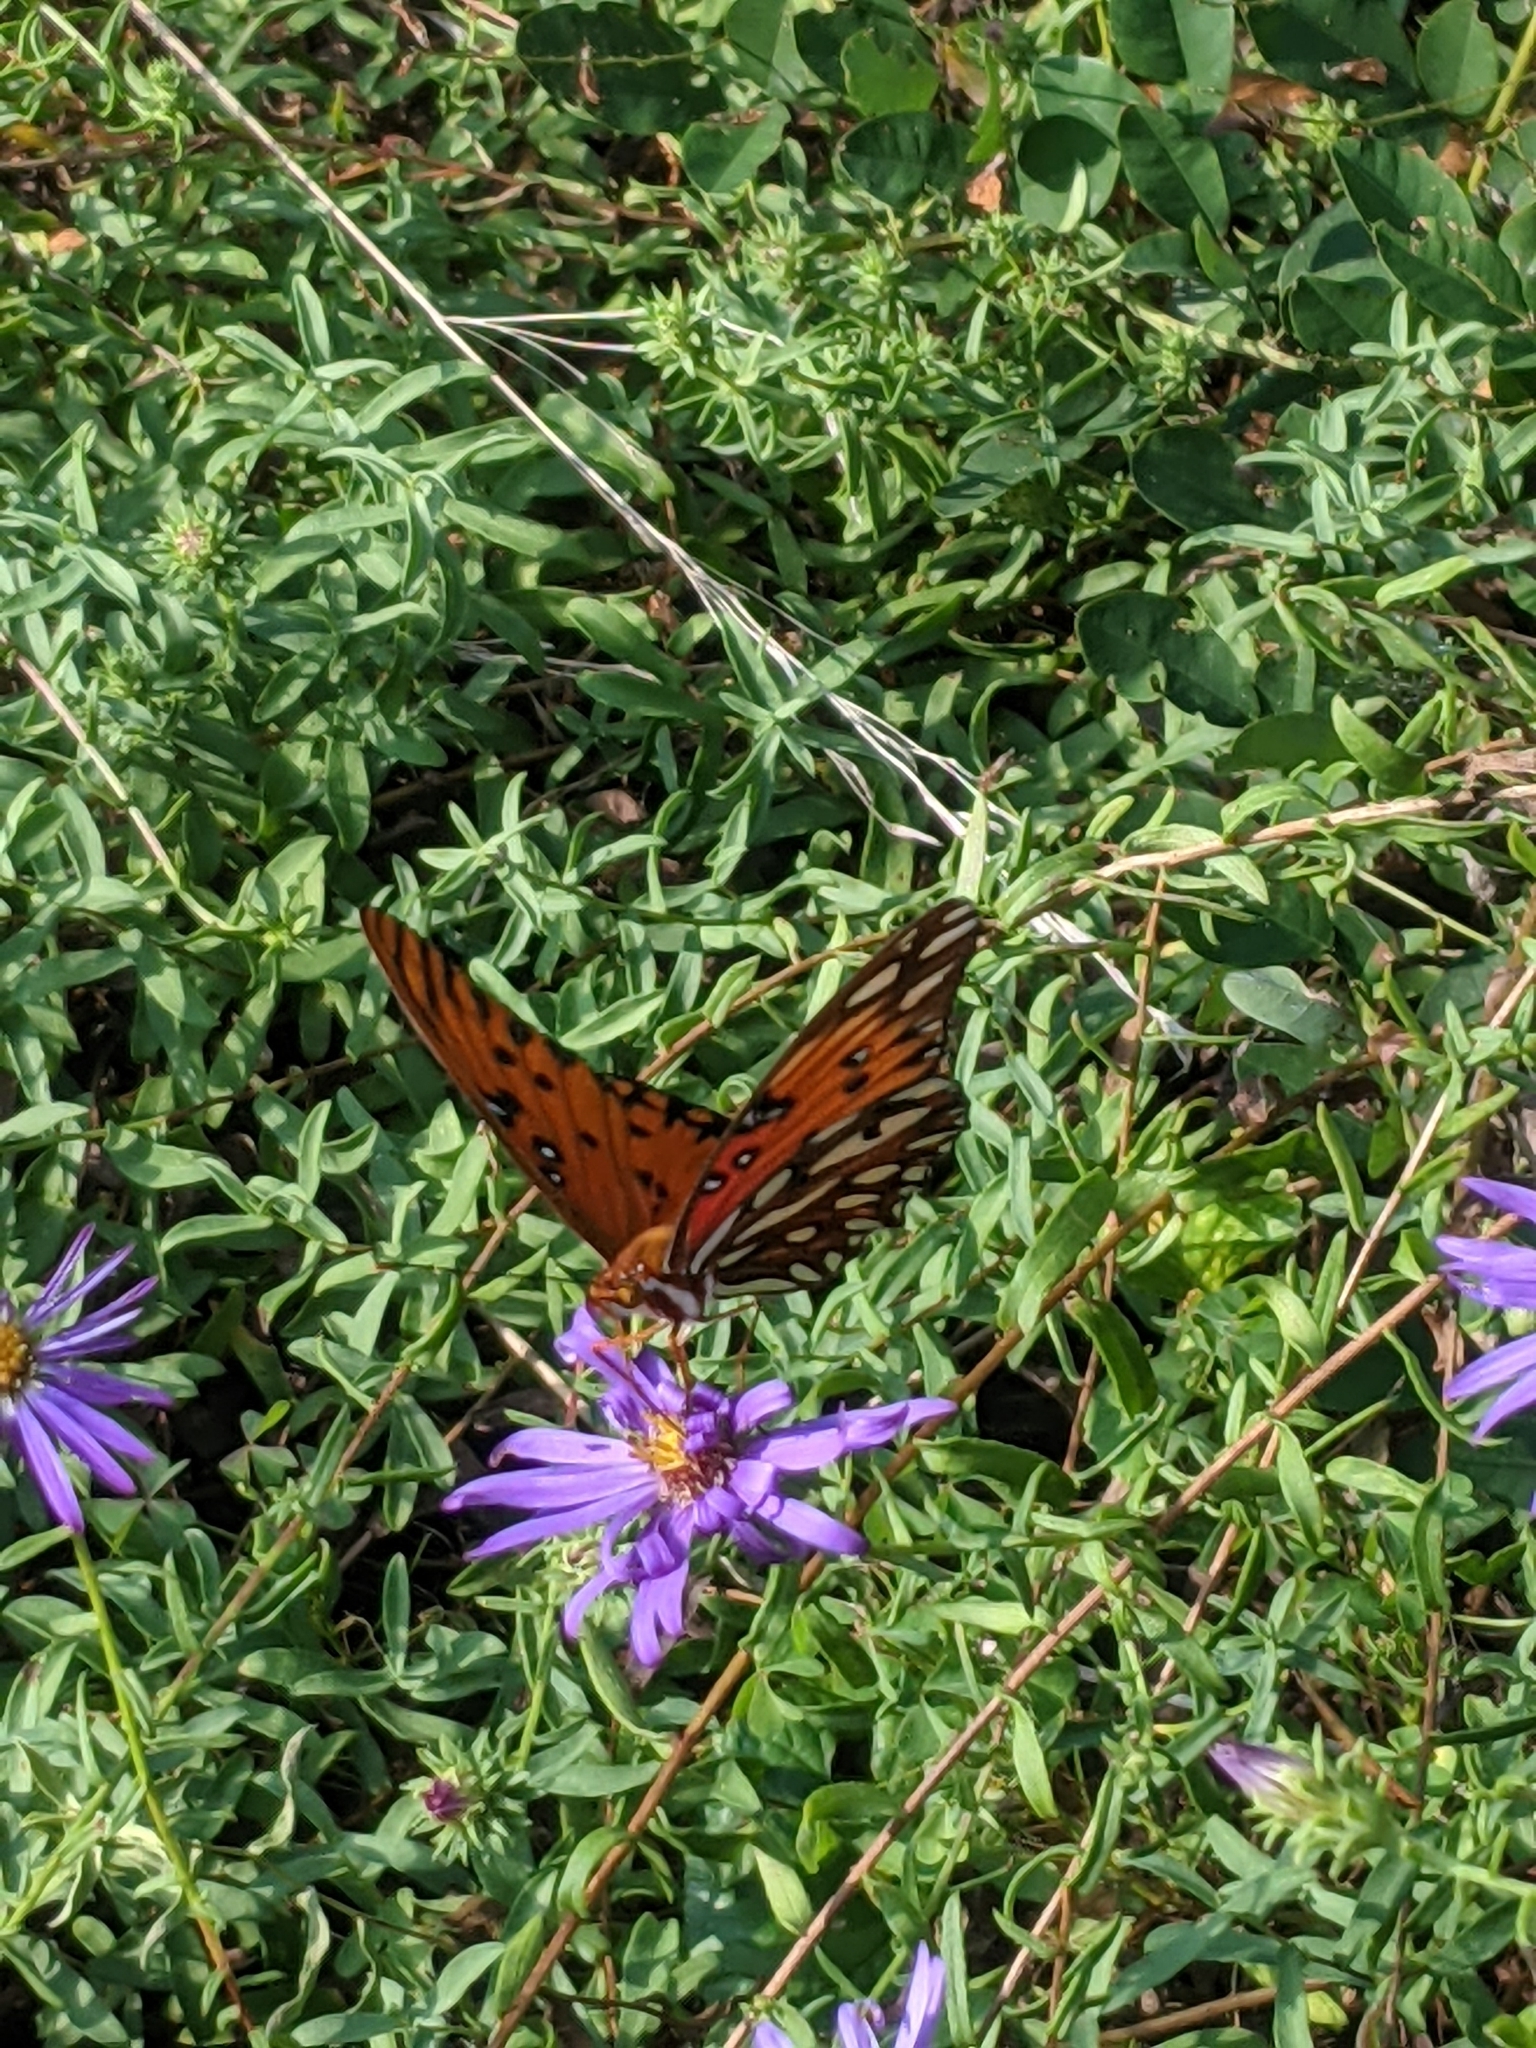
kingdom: Animalia
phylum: Arthropoda
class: Insecta
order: Lepidoptera
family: Nymphalidae
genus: Dione
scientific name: Dione vanillae
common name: Gulf fritillary
